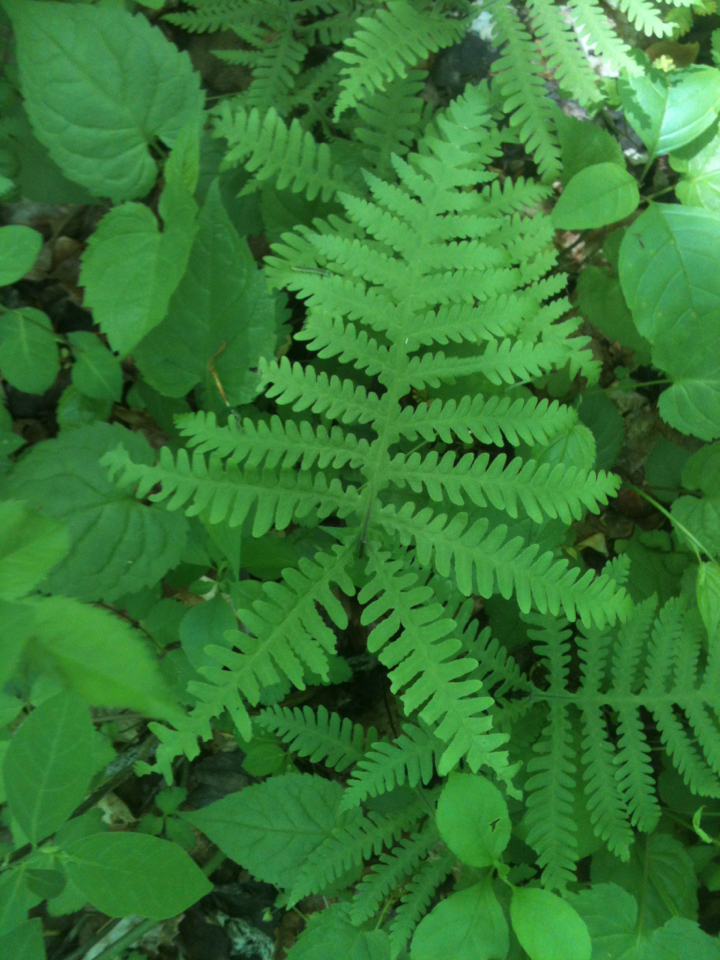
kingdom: Plantae
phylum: Tracheophyta
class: Polypodiopsida
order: Polypodiales
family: Thelypteridaceae
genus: Phegopteris
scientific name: Phegopteris hexagonoptera
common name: Broad beech fern
